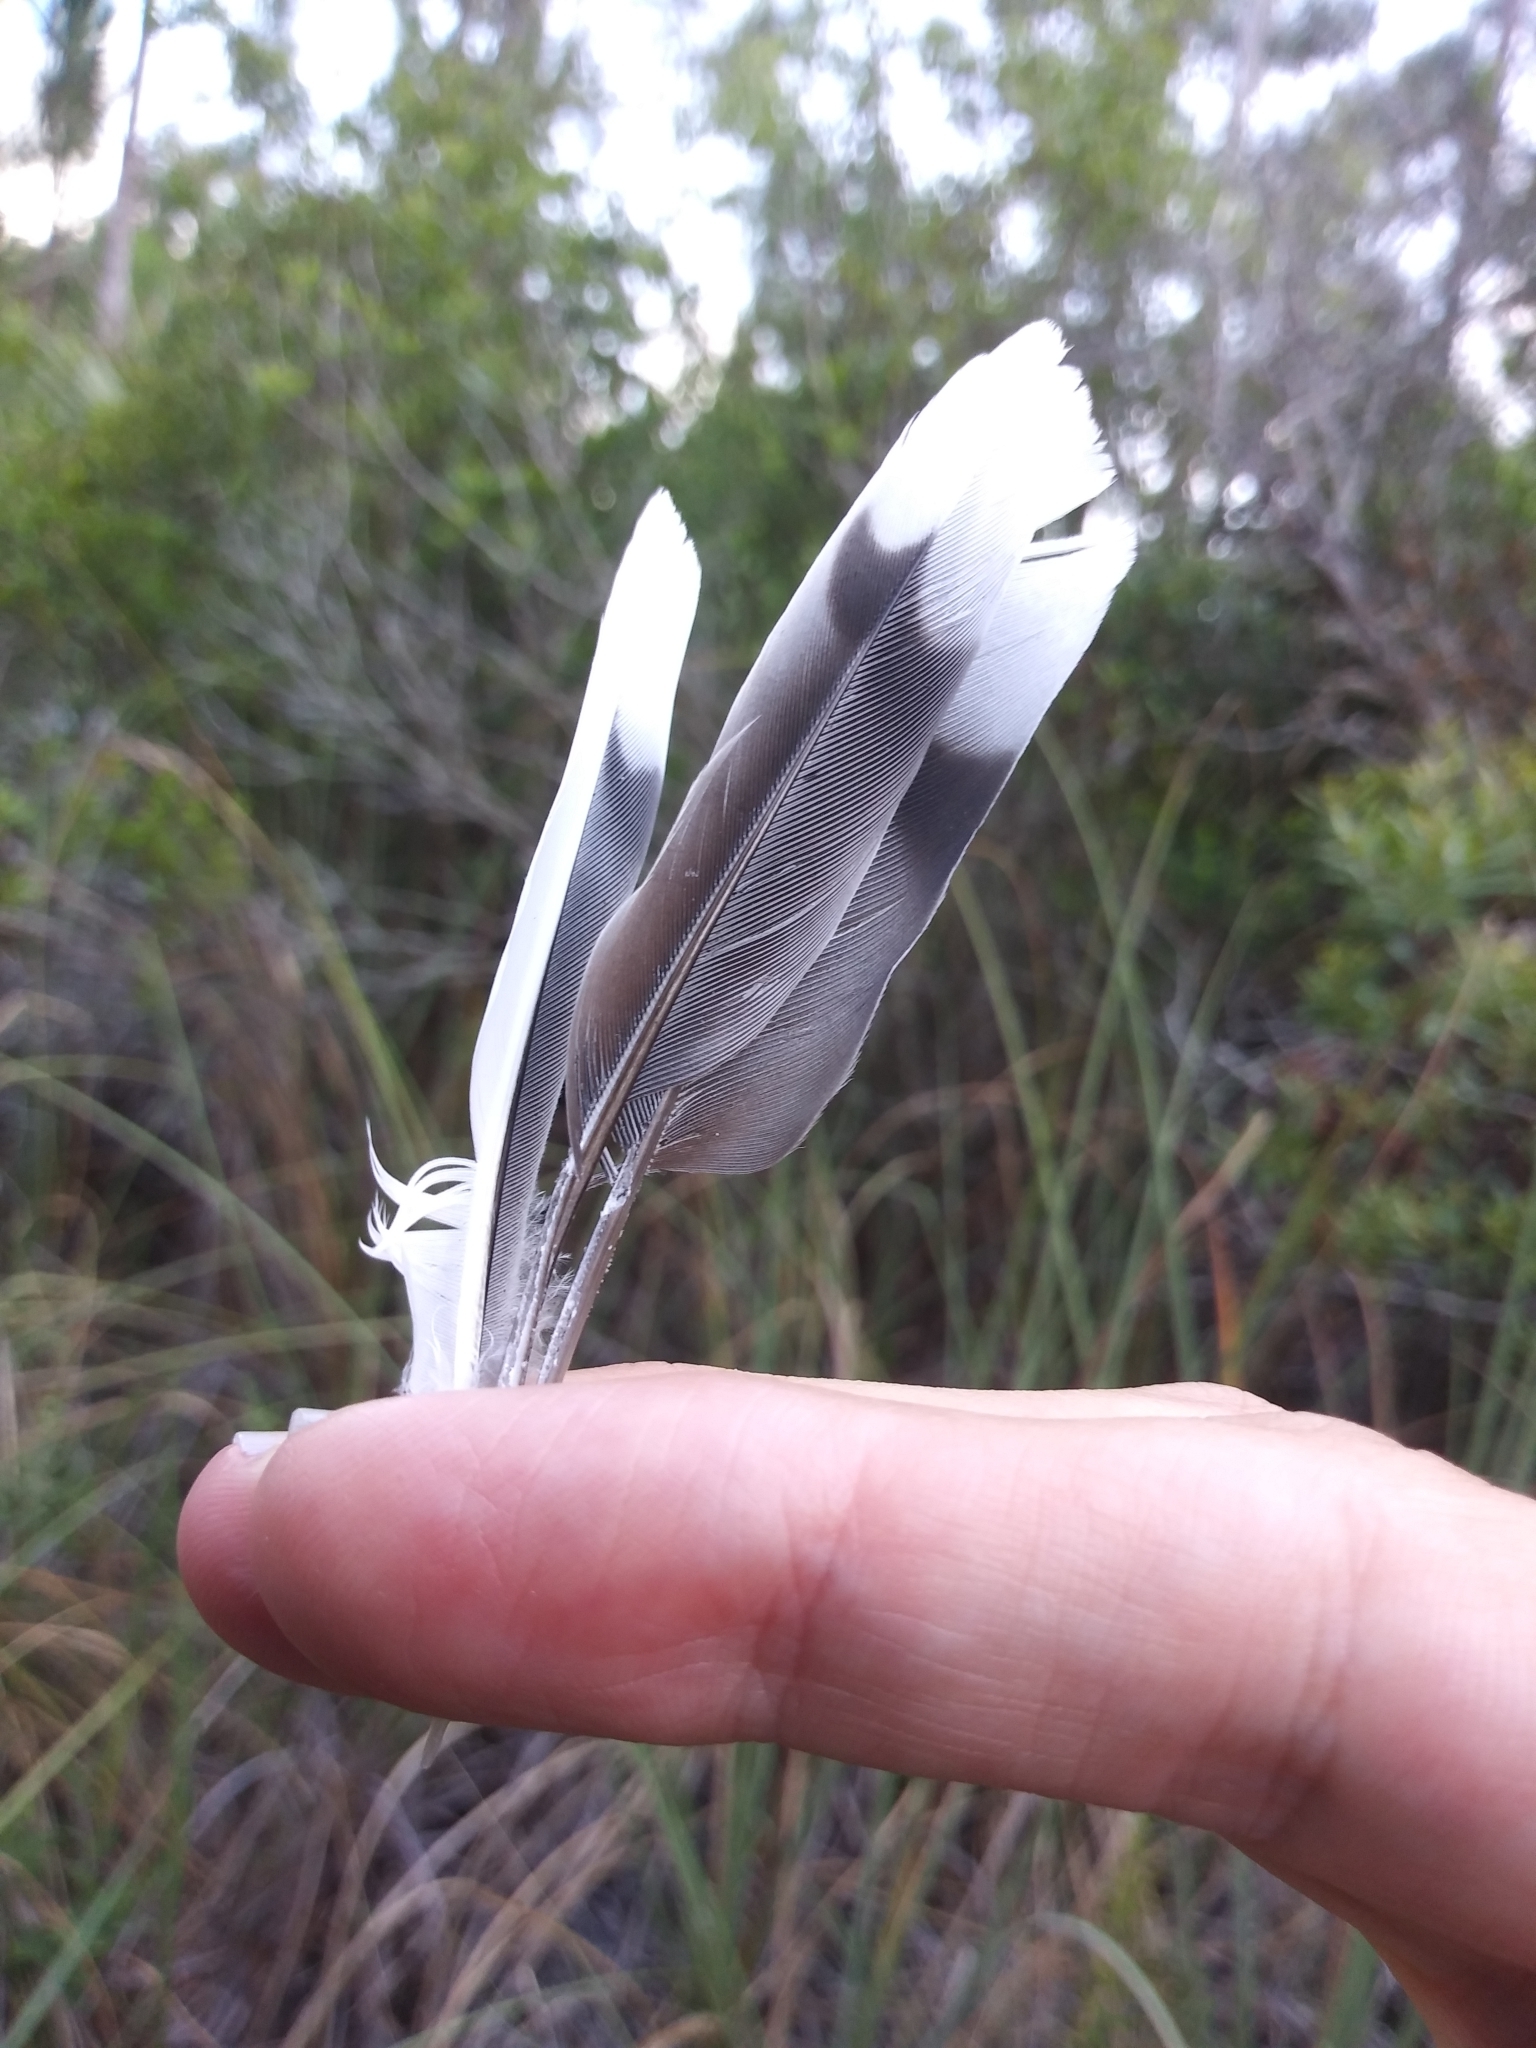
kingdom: Animalia
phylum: Chordata
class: Aves
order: Columbiformes
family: Columbidae
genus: Zenaida
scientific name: Zenaida macroura
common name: Mourning dove
